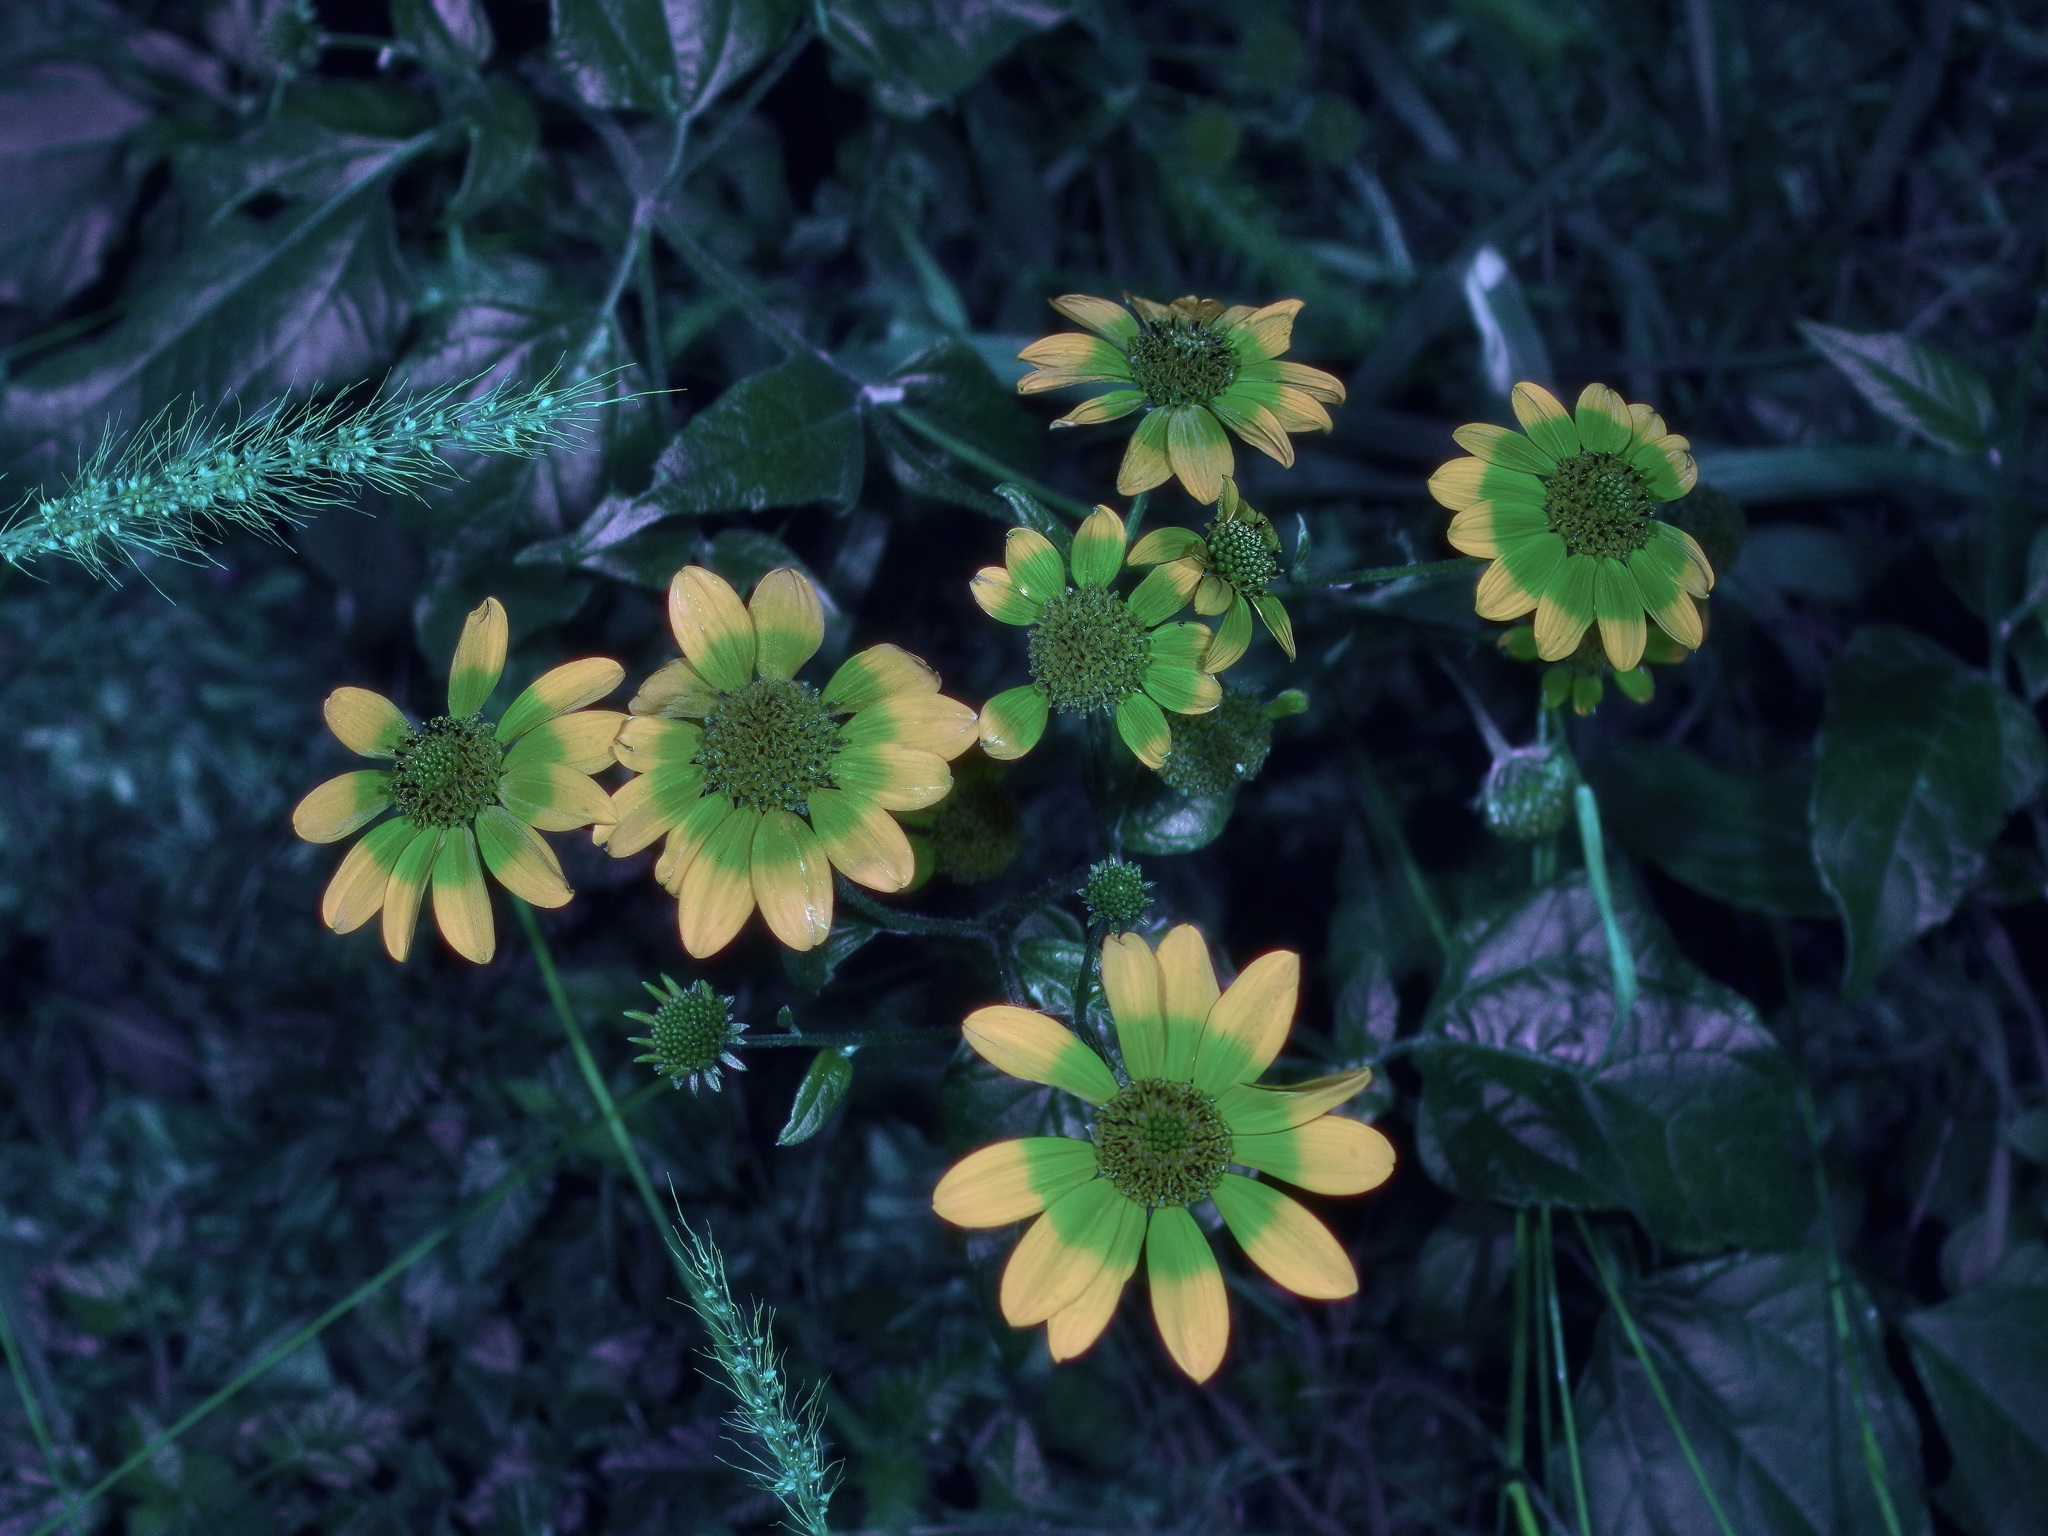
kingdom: Plantae
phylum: Tracheophyta
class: Magnoliopsida
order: Asterales
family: Asteraceae
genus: Viguiera
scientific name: Viguiera dentata
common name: Toothleaf
